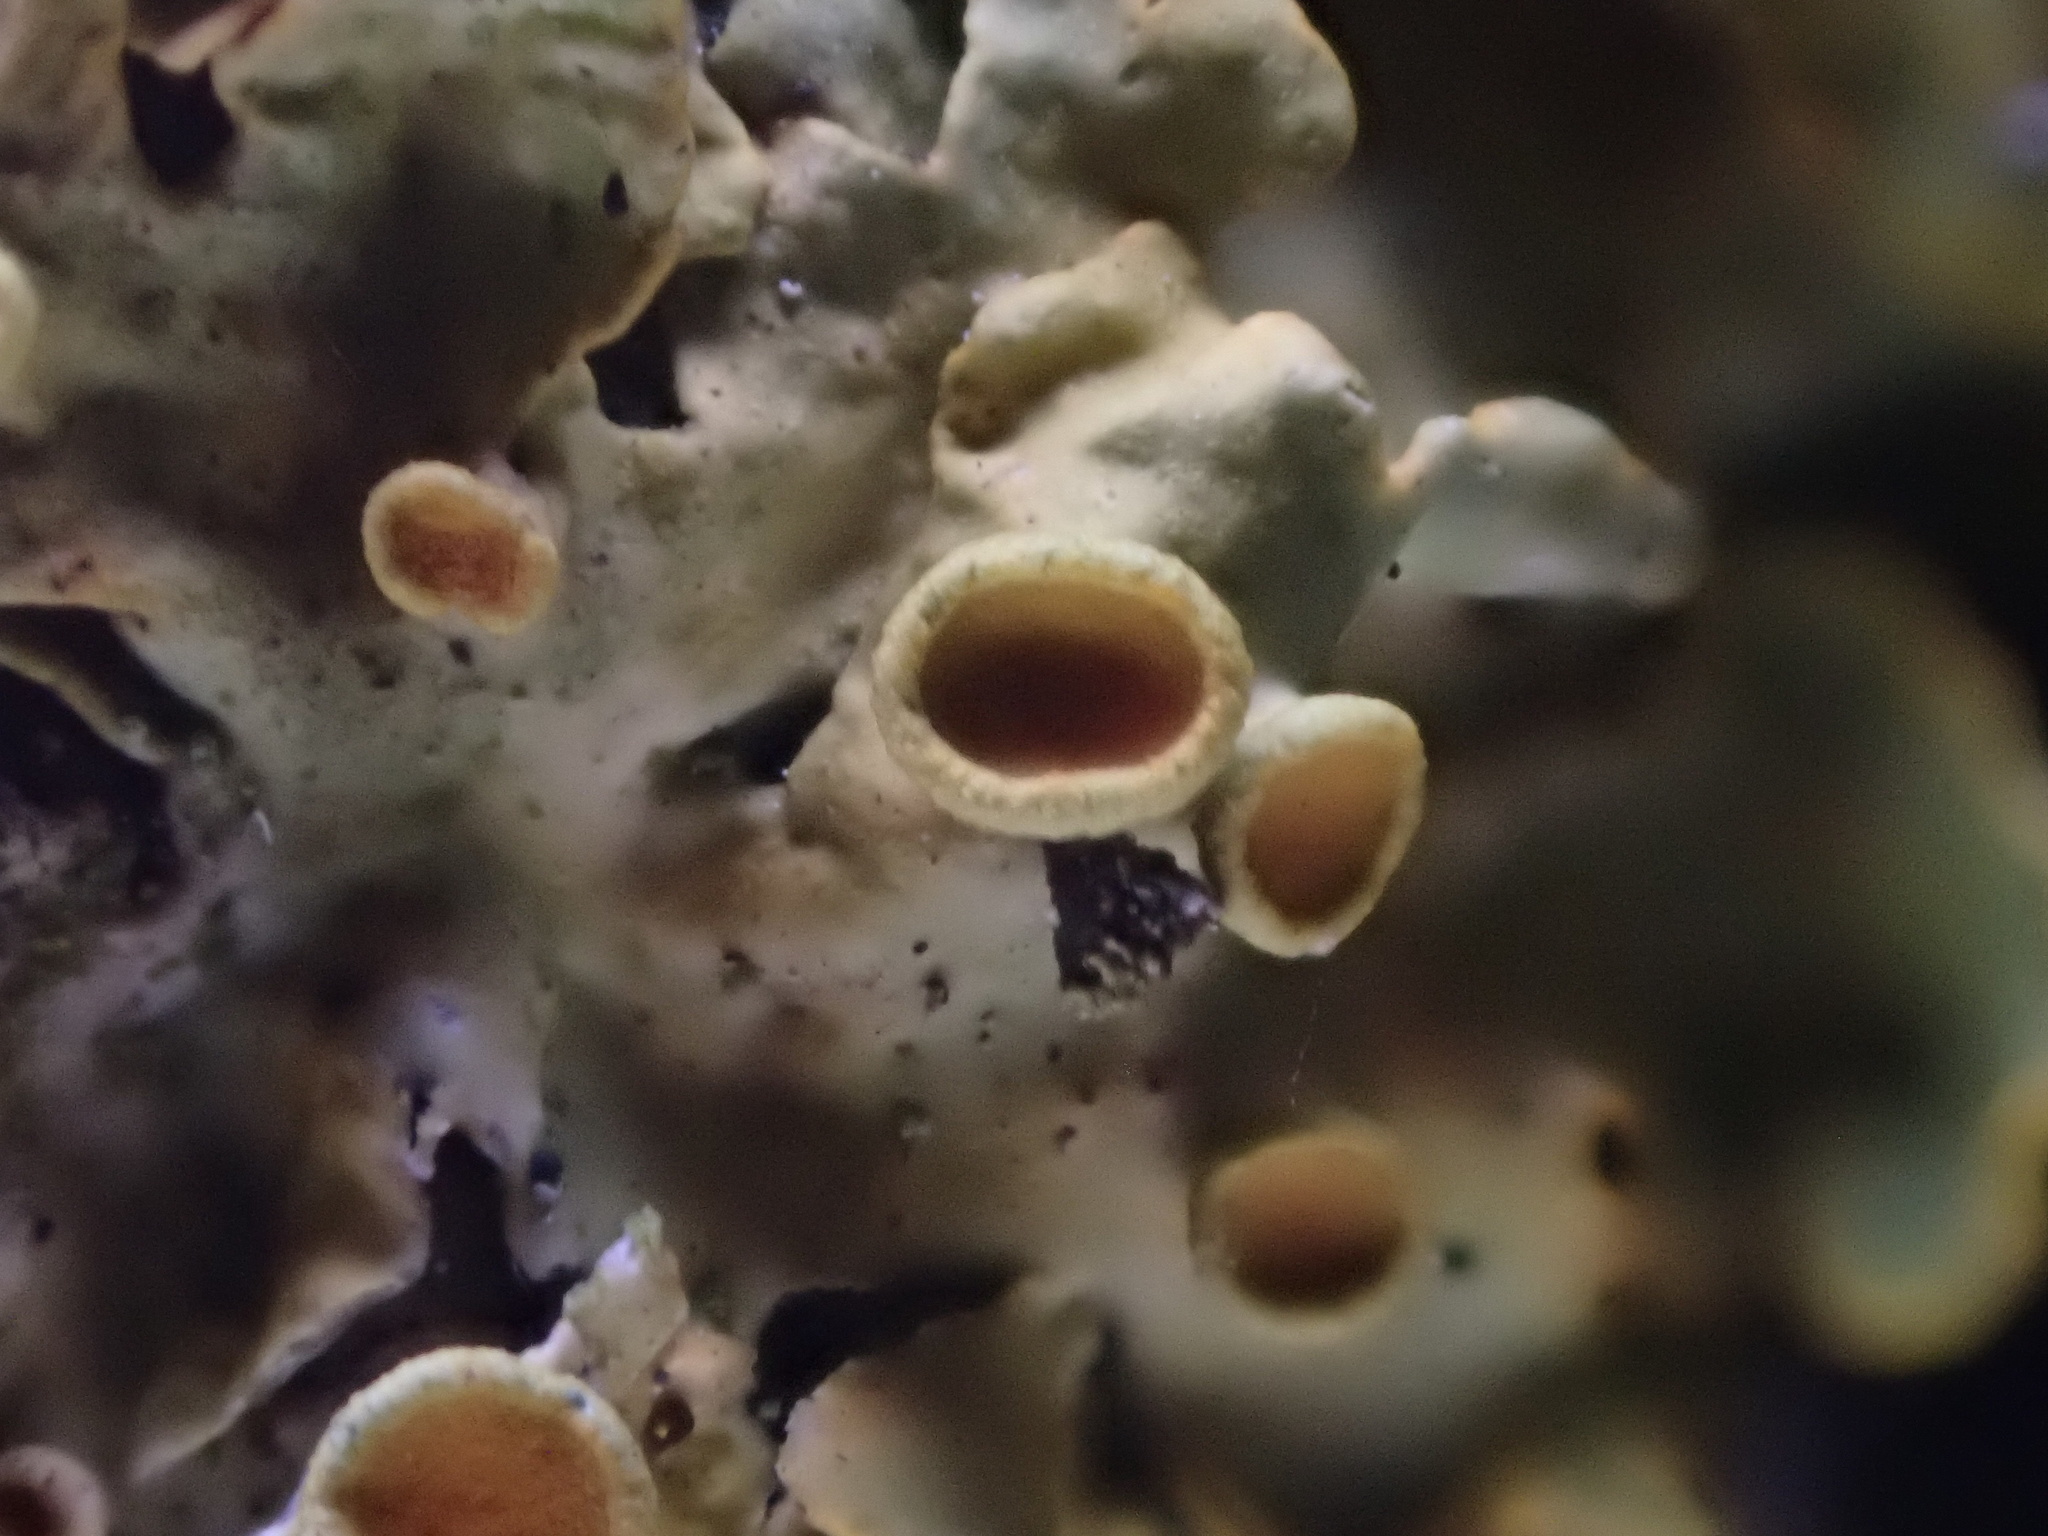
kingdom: Fungi
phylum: Ascomycota
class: Lecanoromycetes
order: Teloschistales
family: Teloschistaceae
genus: Xanthoria
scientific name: Xanthoria parietina
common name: Common orange lichen
